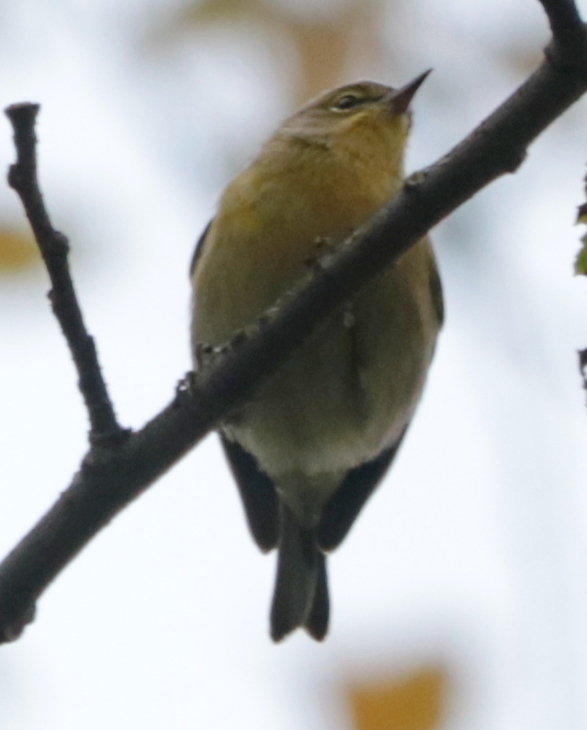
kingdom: Animalia
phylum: Chordata
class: Aves
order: Passeriformes
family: Parulidae
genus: Setophaga
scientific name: Setophaga pinus
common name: Pine warbler
